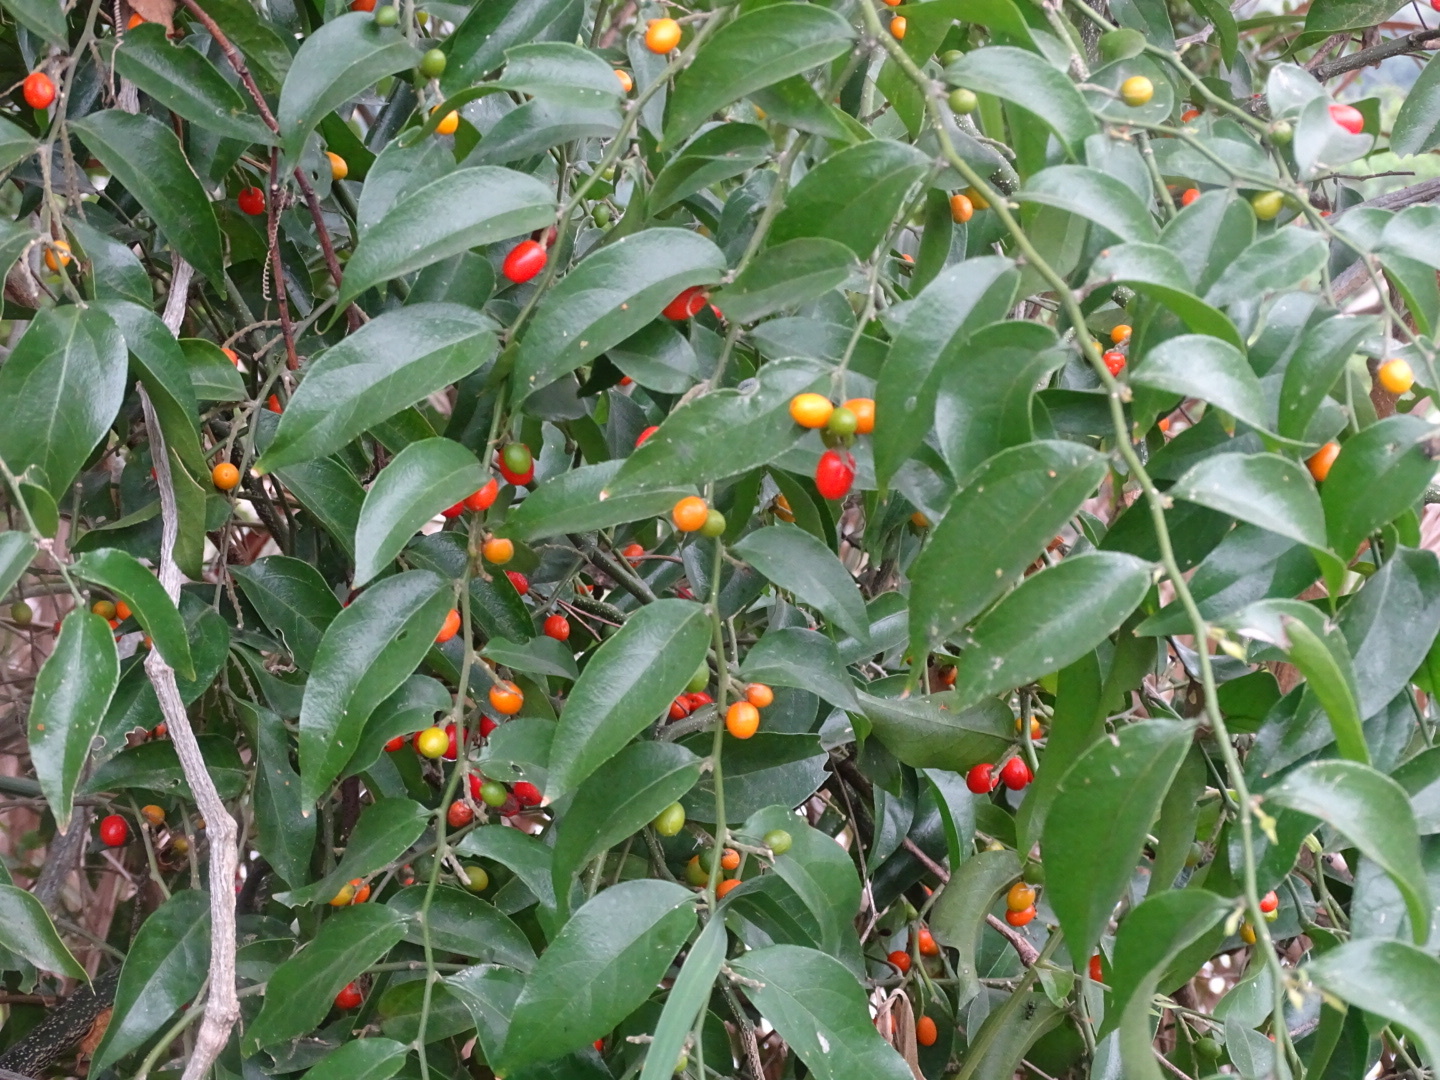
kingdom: Plantae
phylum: Tracheophyta
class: Magnoliopsida
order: Santalales
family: Opiliaceae
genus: Cansjera
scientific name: Cansjera rheedei
